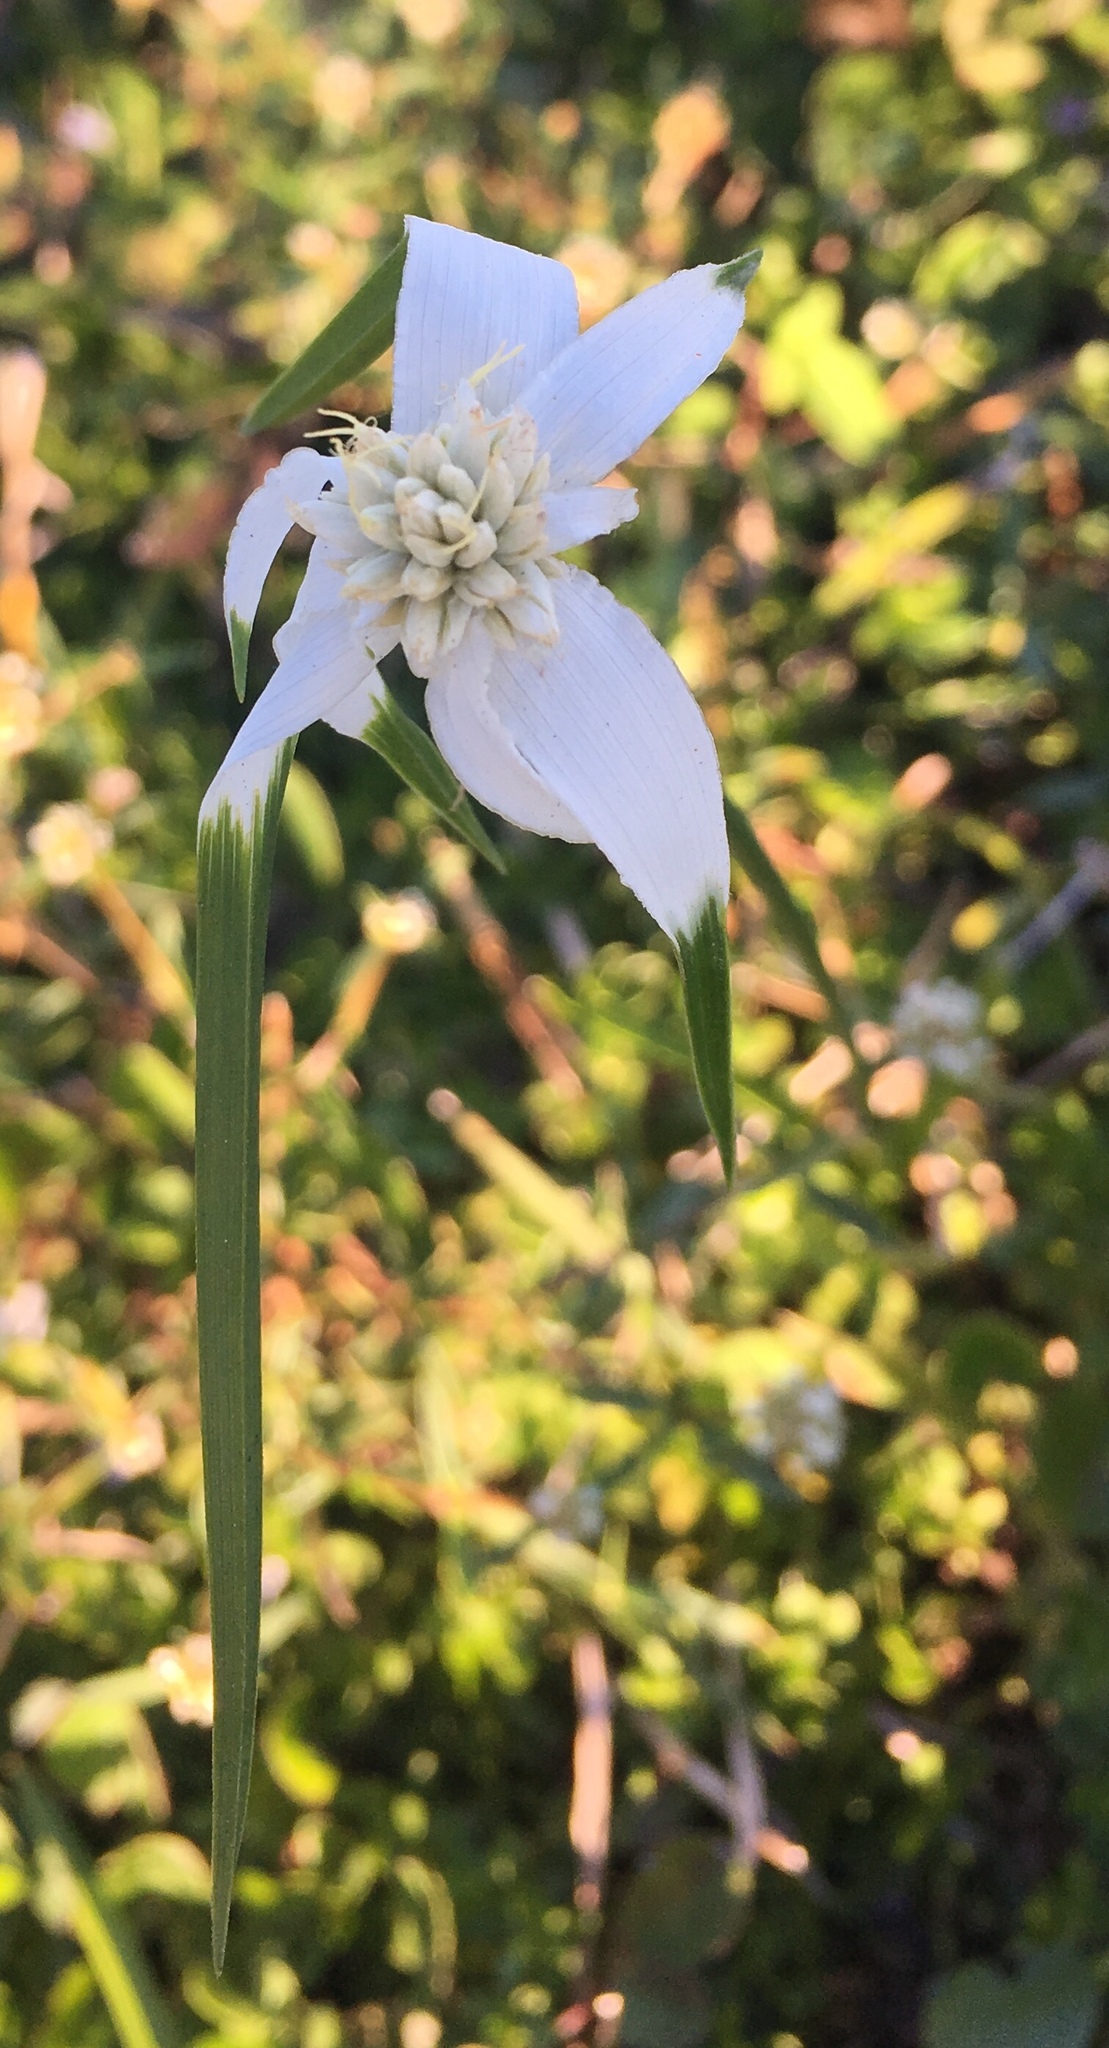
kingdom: Plantae
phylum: Tracheophyta
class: Liliopsida
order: Poales
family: Cyperaceae
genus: Rhynchospora
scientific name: Rhynchospora colorata
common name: Star sedge
